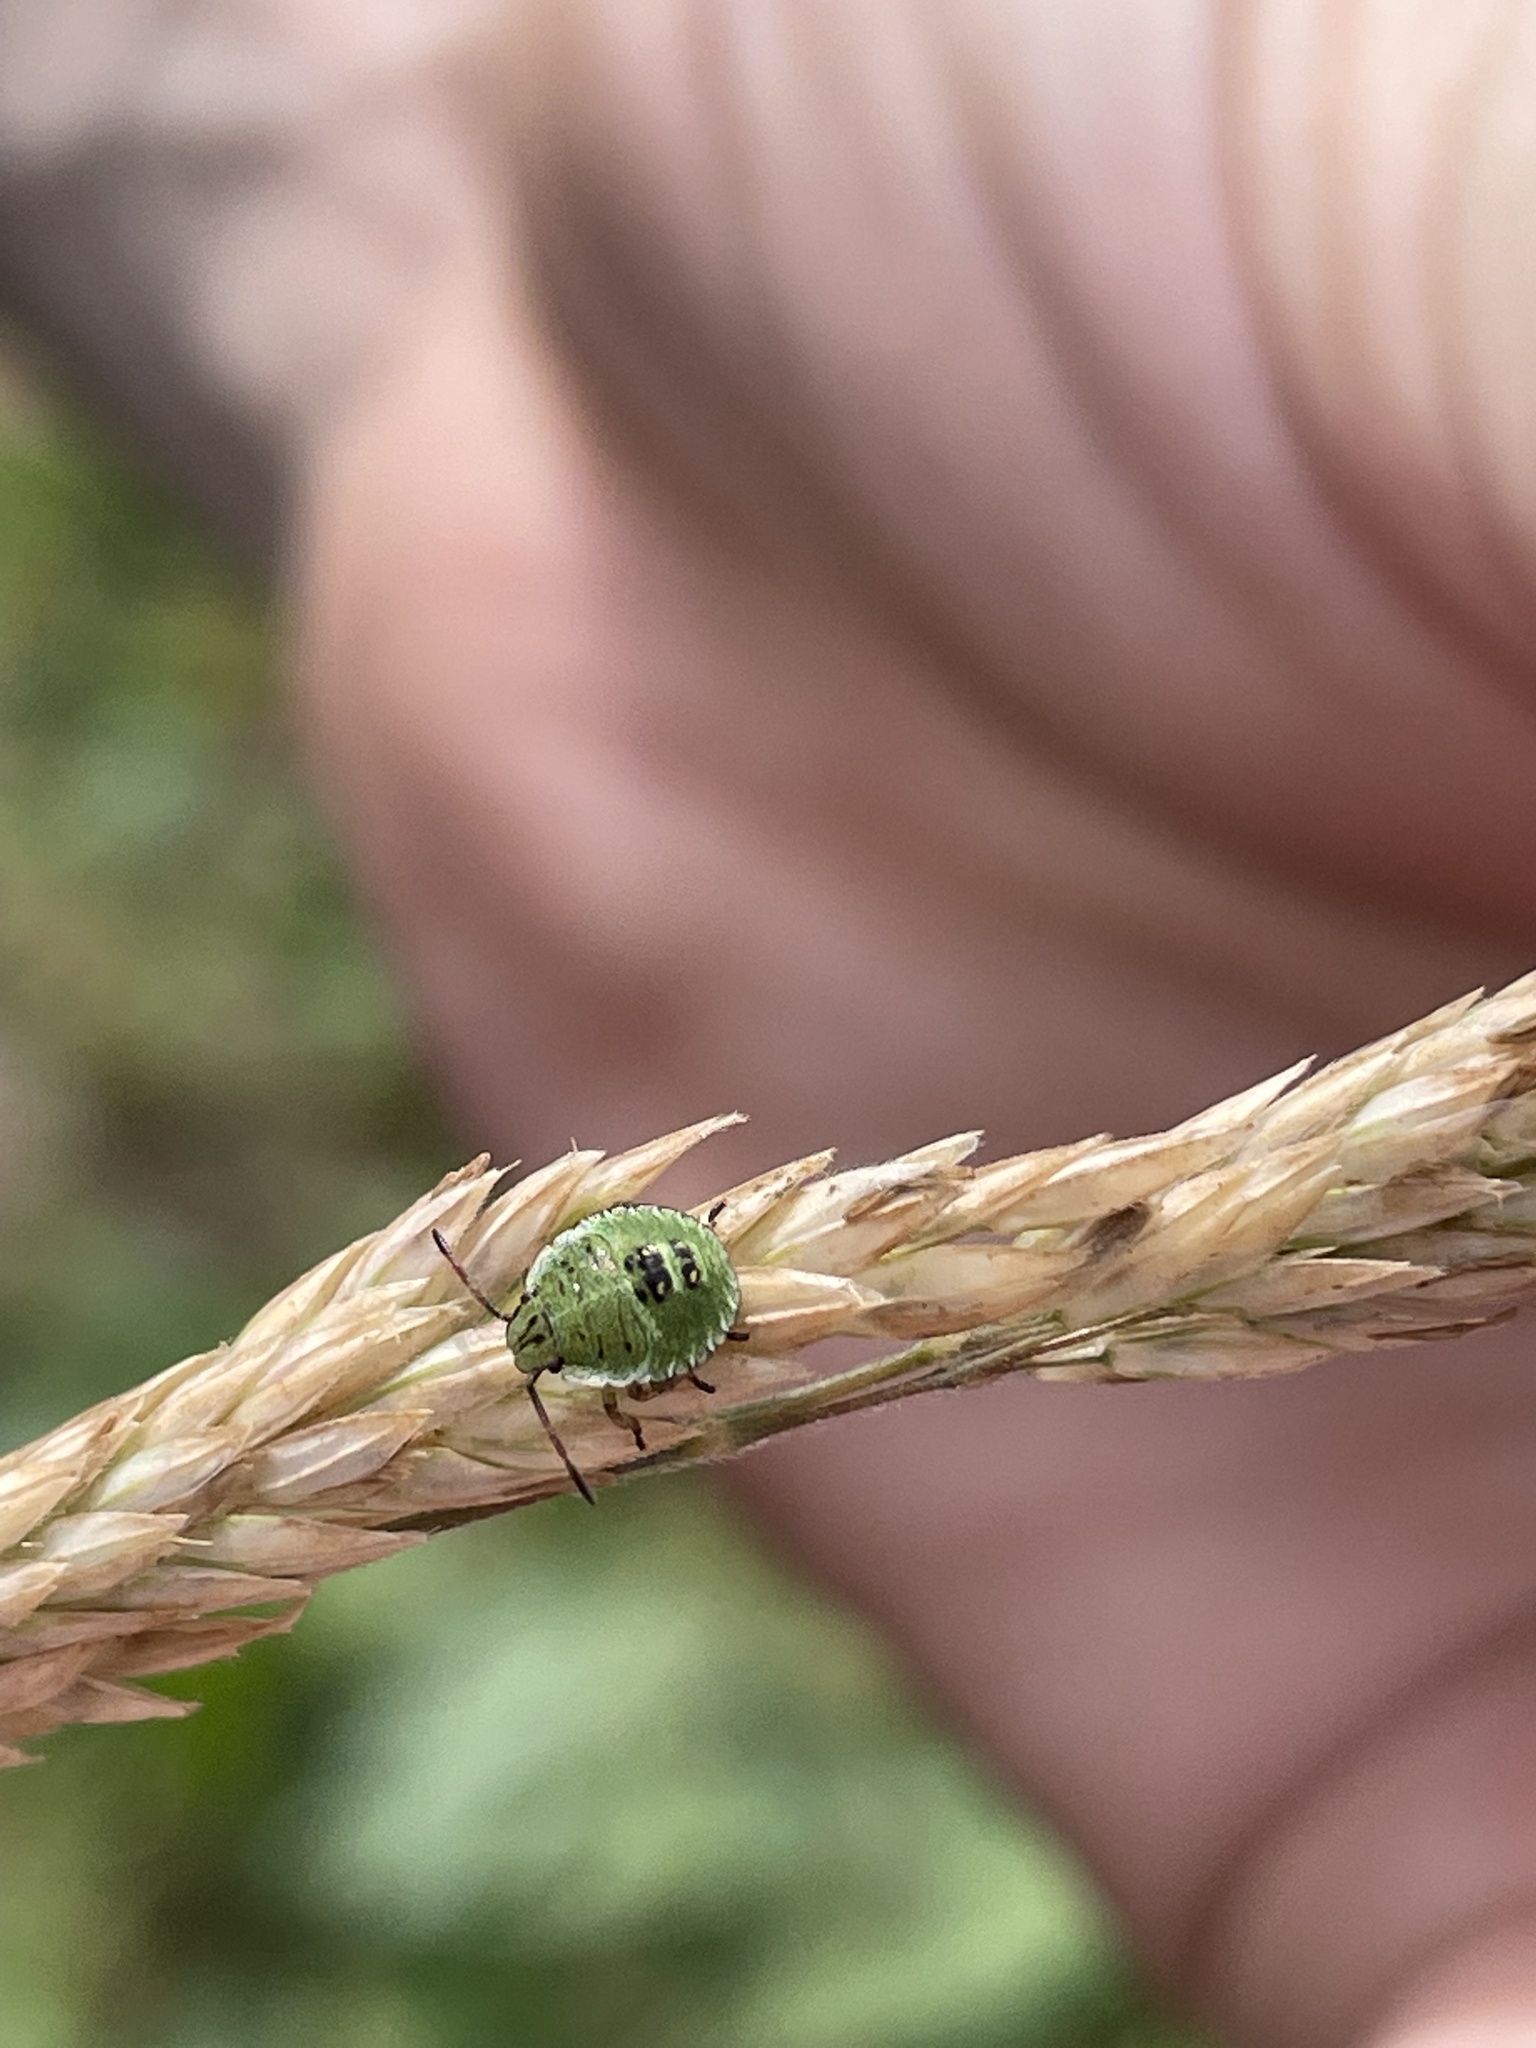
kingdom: Animalia
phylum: Arthropoda
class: Insecta
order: Hemiptera
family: Pentatomidae
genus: Palomena
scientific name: Palomena prasina
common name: Green shieldbug
